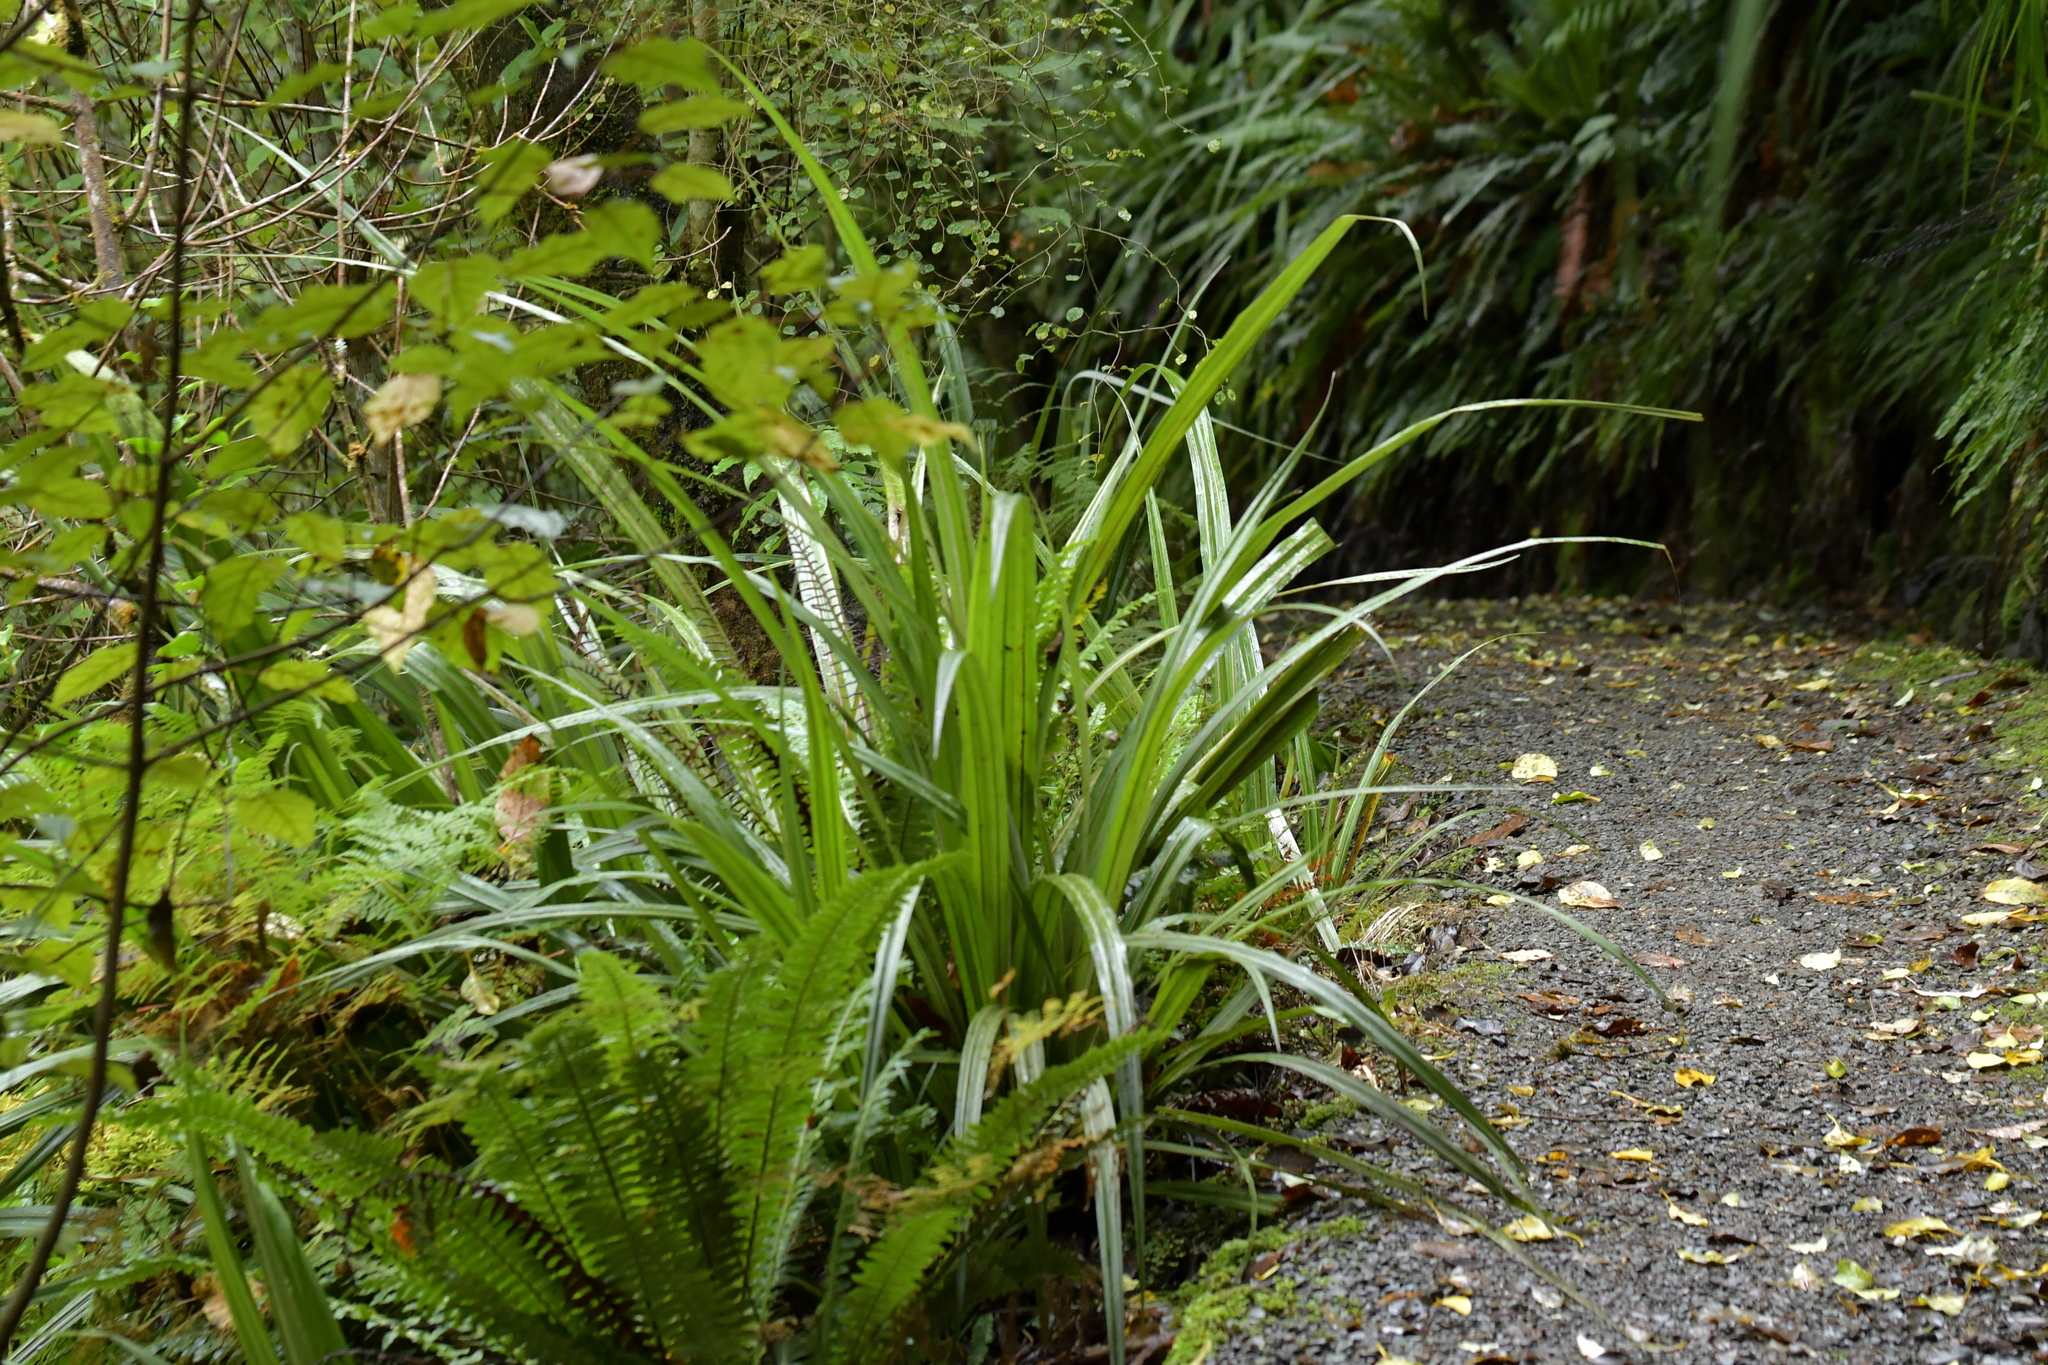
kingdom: Plantae
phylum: Tracheophyta
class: Liliopsida
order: Asparagales
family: Asteliaceae
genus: Astelia
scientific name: Astelia fragrans
